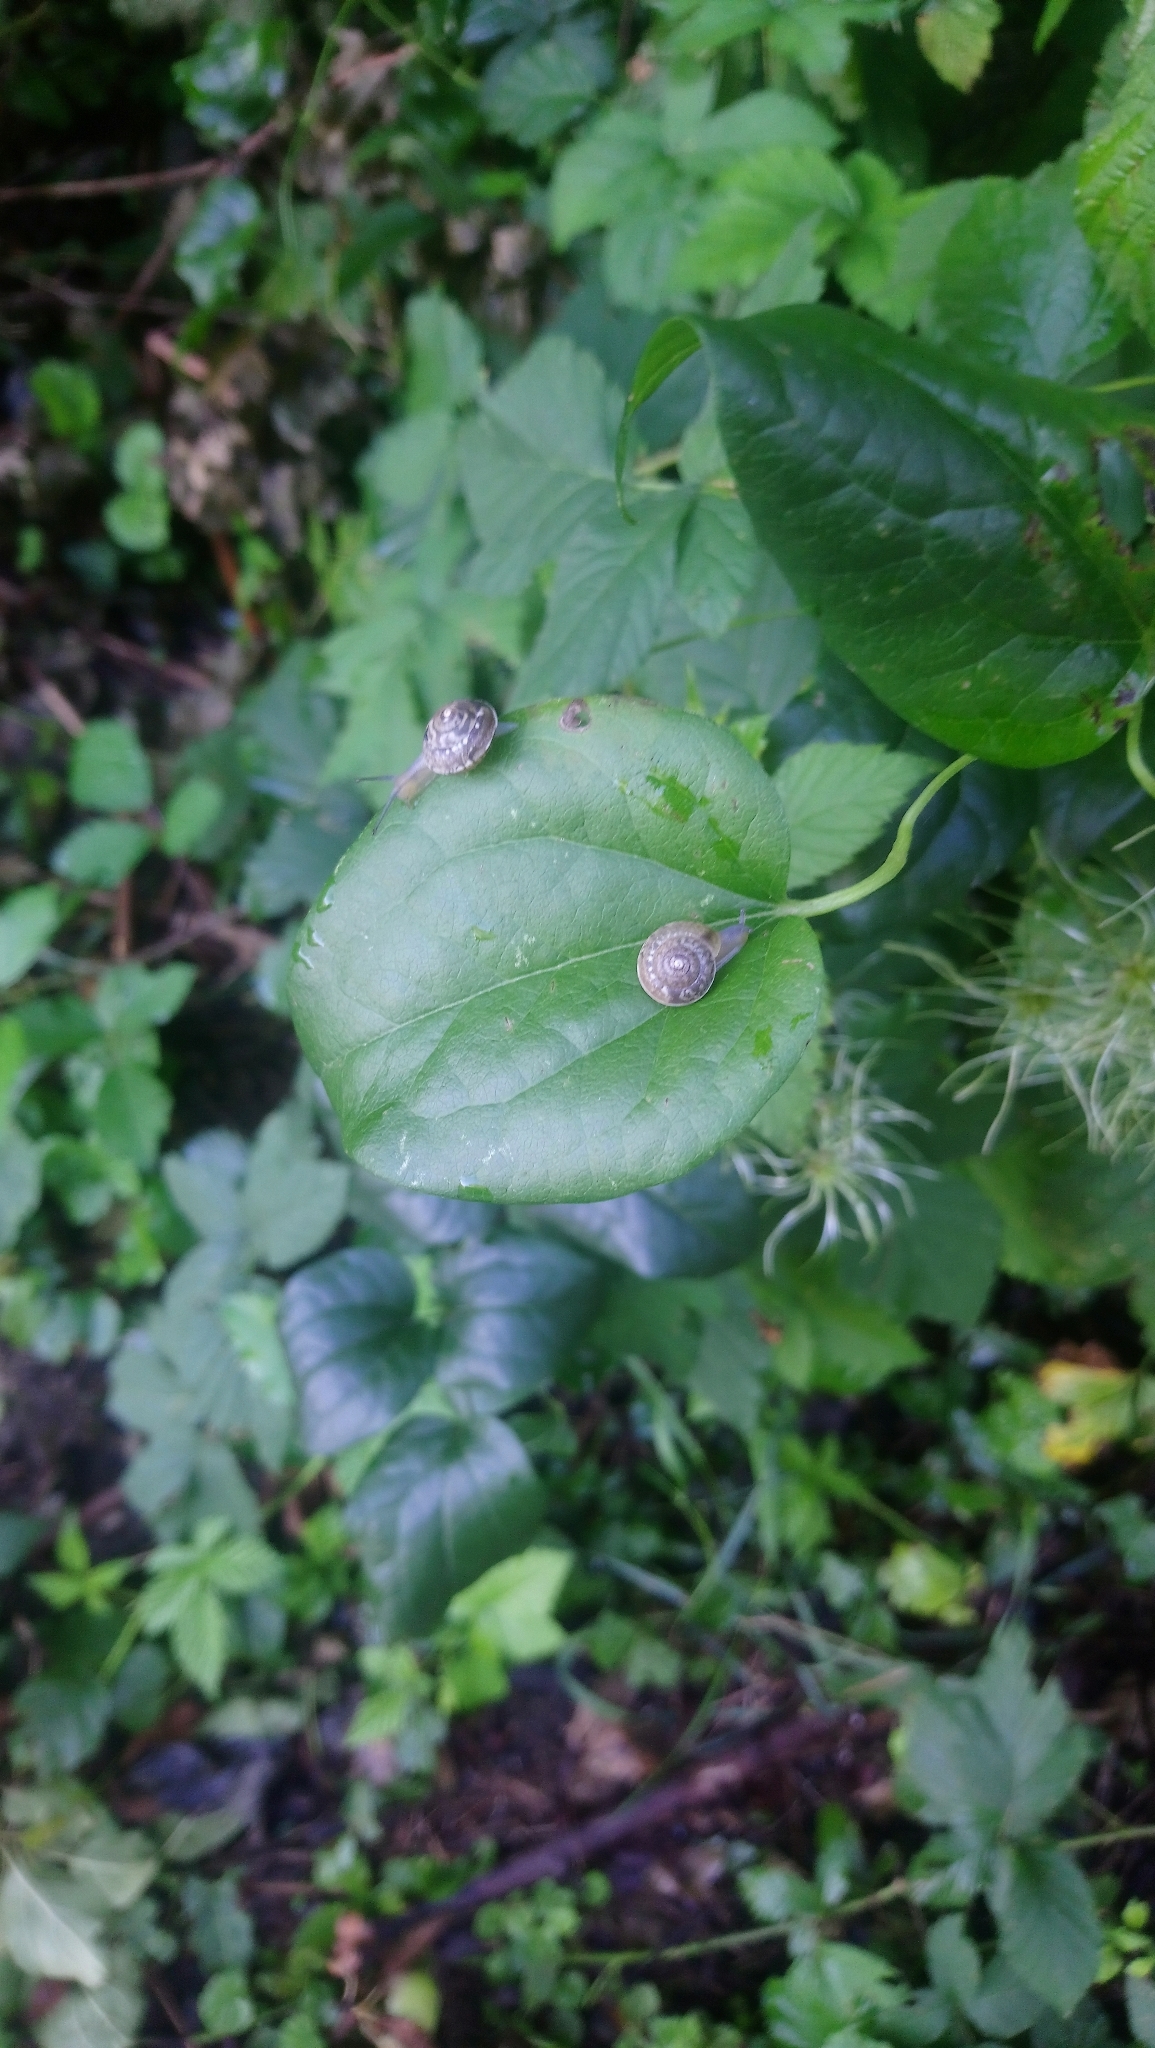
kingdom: Animalia
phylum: Mollusca
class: Gastropoda
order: Stylommatophora
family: Hygromiidae
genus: Hygromia
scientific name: Hygromia cinctella
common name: Girdled snail
